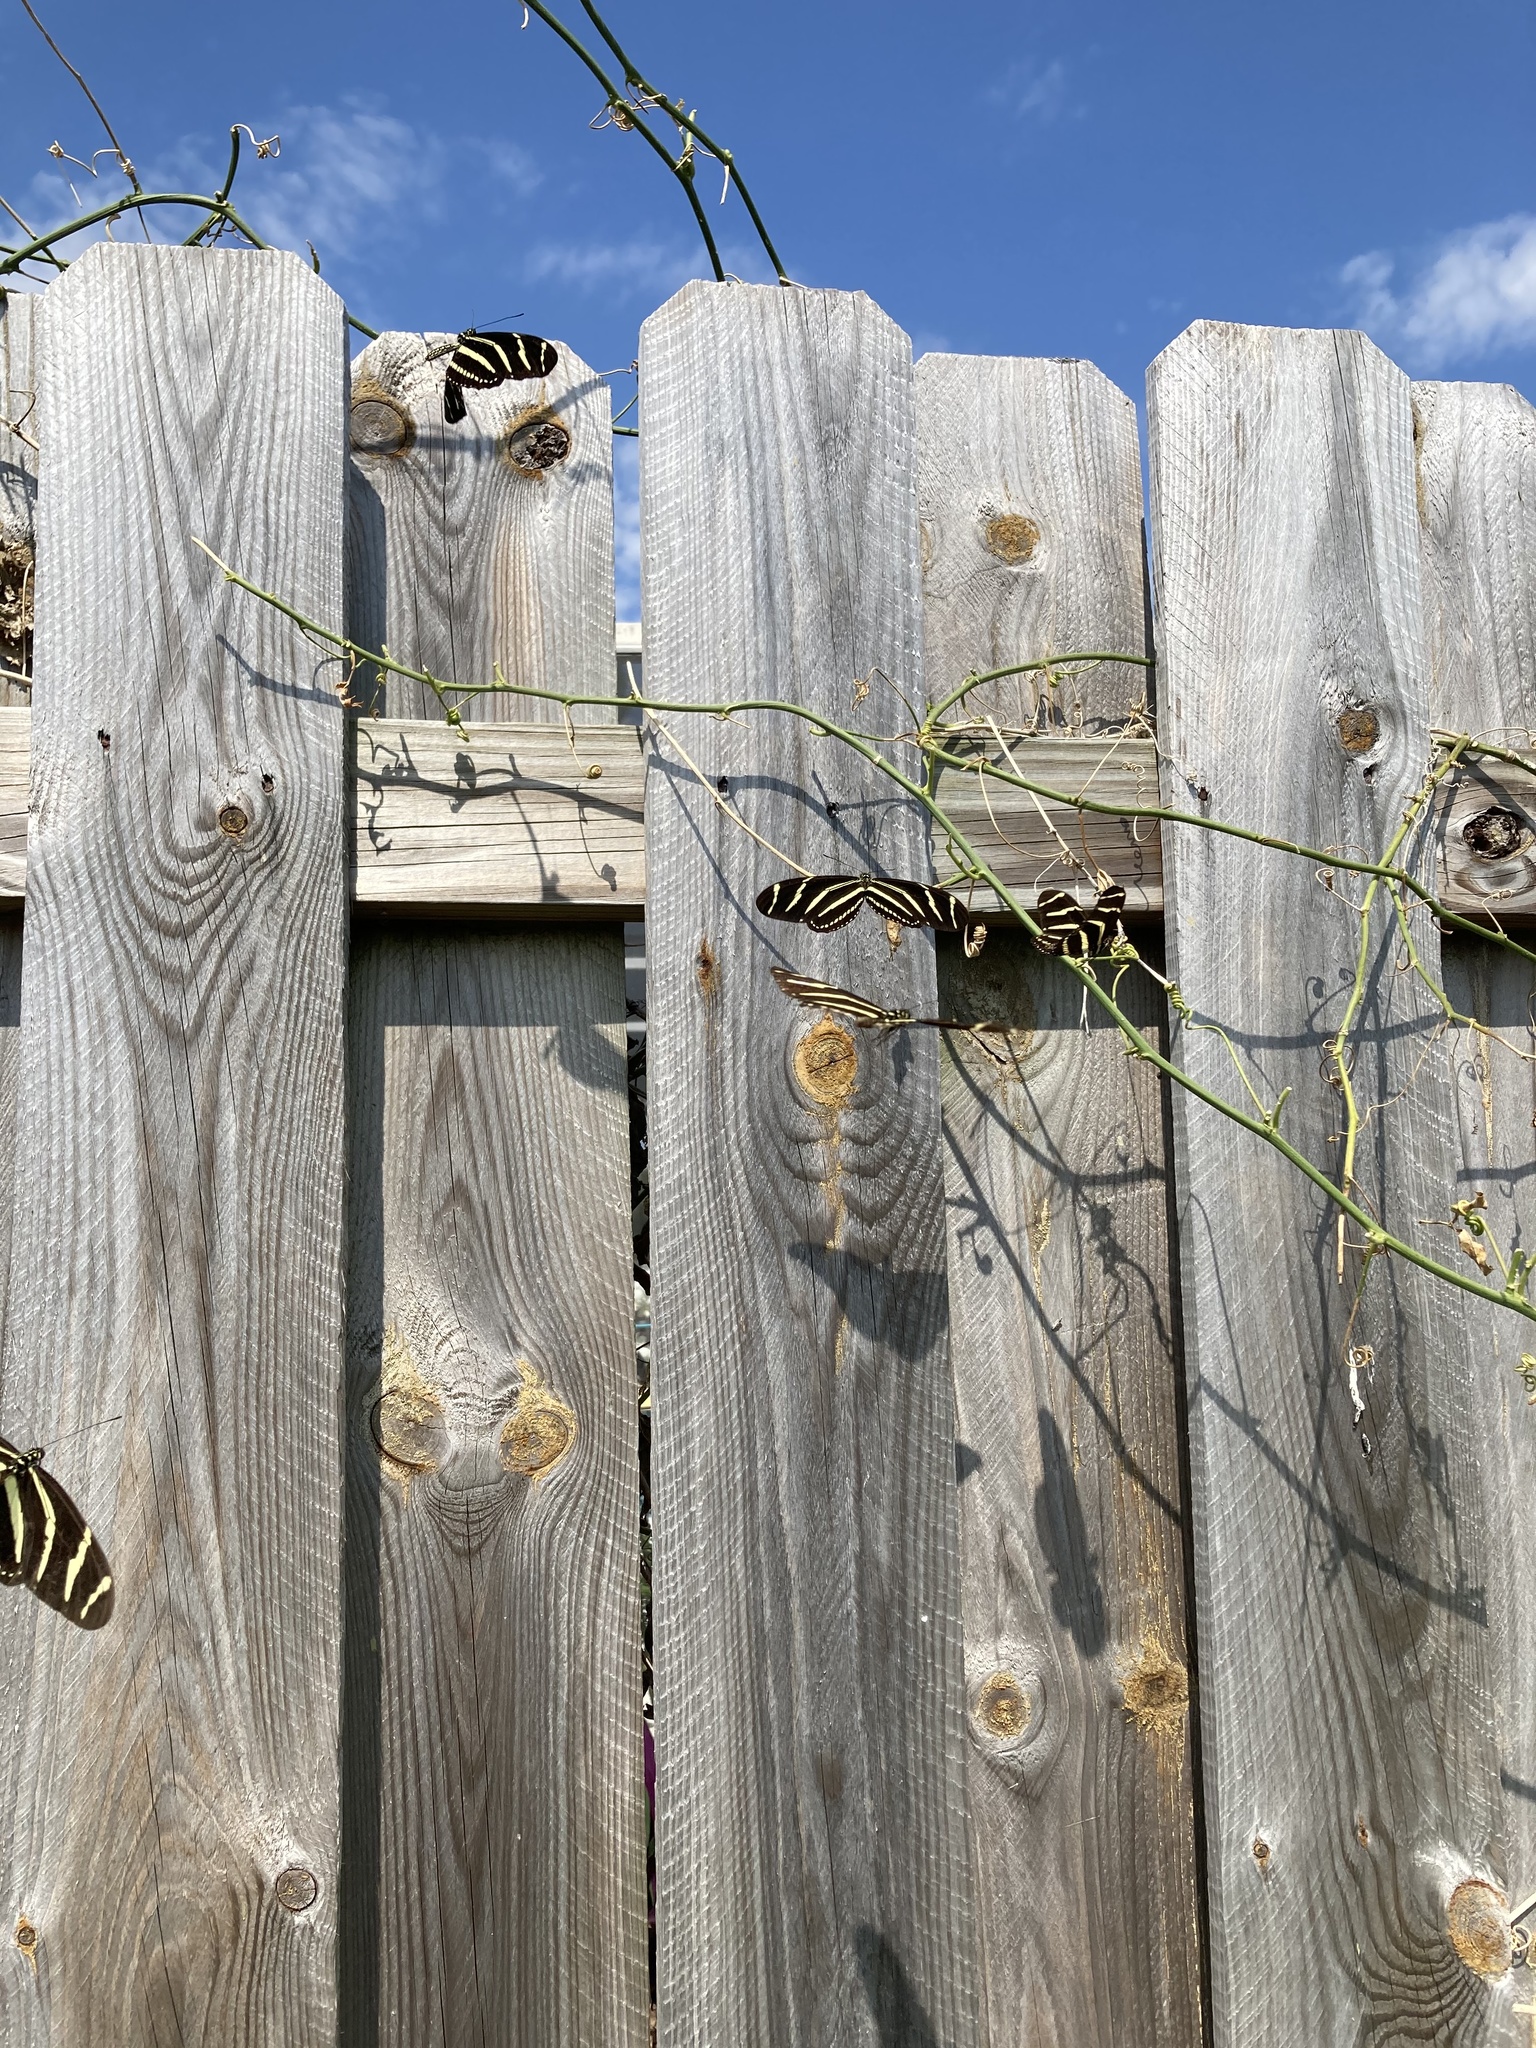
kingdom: Animalia
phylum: Arthropoda
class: Insecta
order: Lepidoptera
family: Nymphalidae
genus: Heliconius
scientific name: Heliconius charithonia
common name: Zebra long wing
